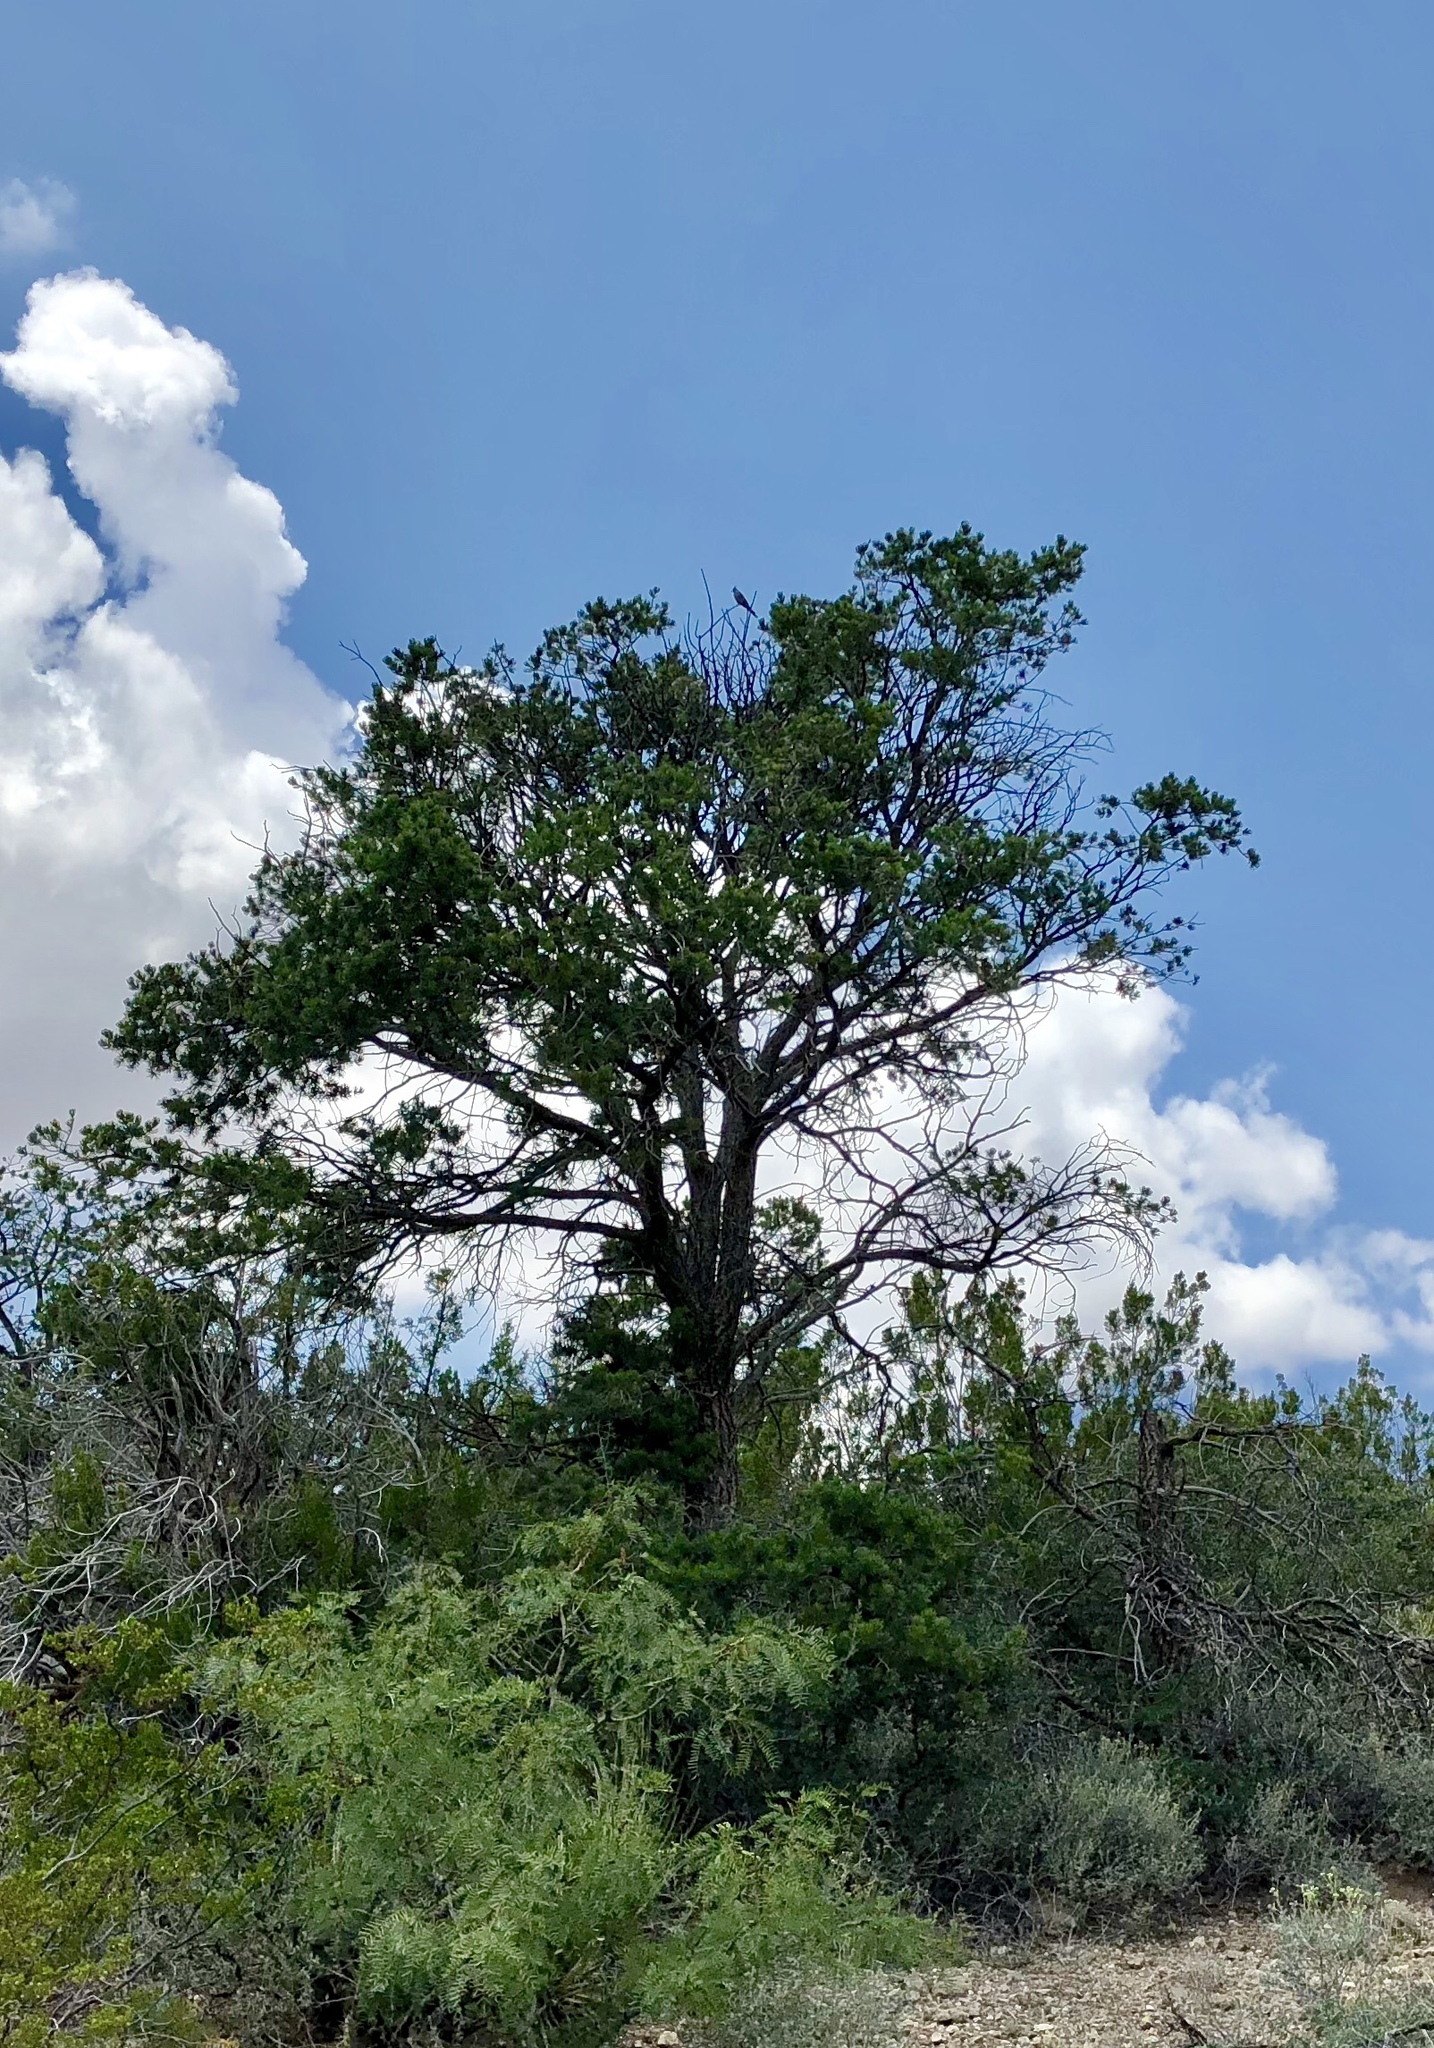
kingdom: Plantae
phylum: Tracheophyta
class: Pinopsida
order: Pinales
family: Pinaceae
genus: Pinus
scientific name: Pinus edulis
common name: Colorado pinyon
